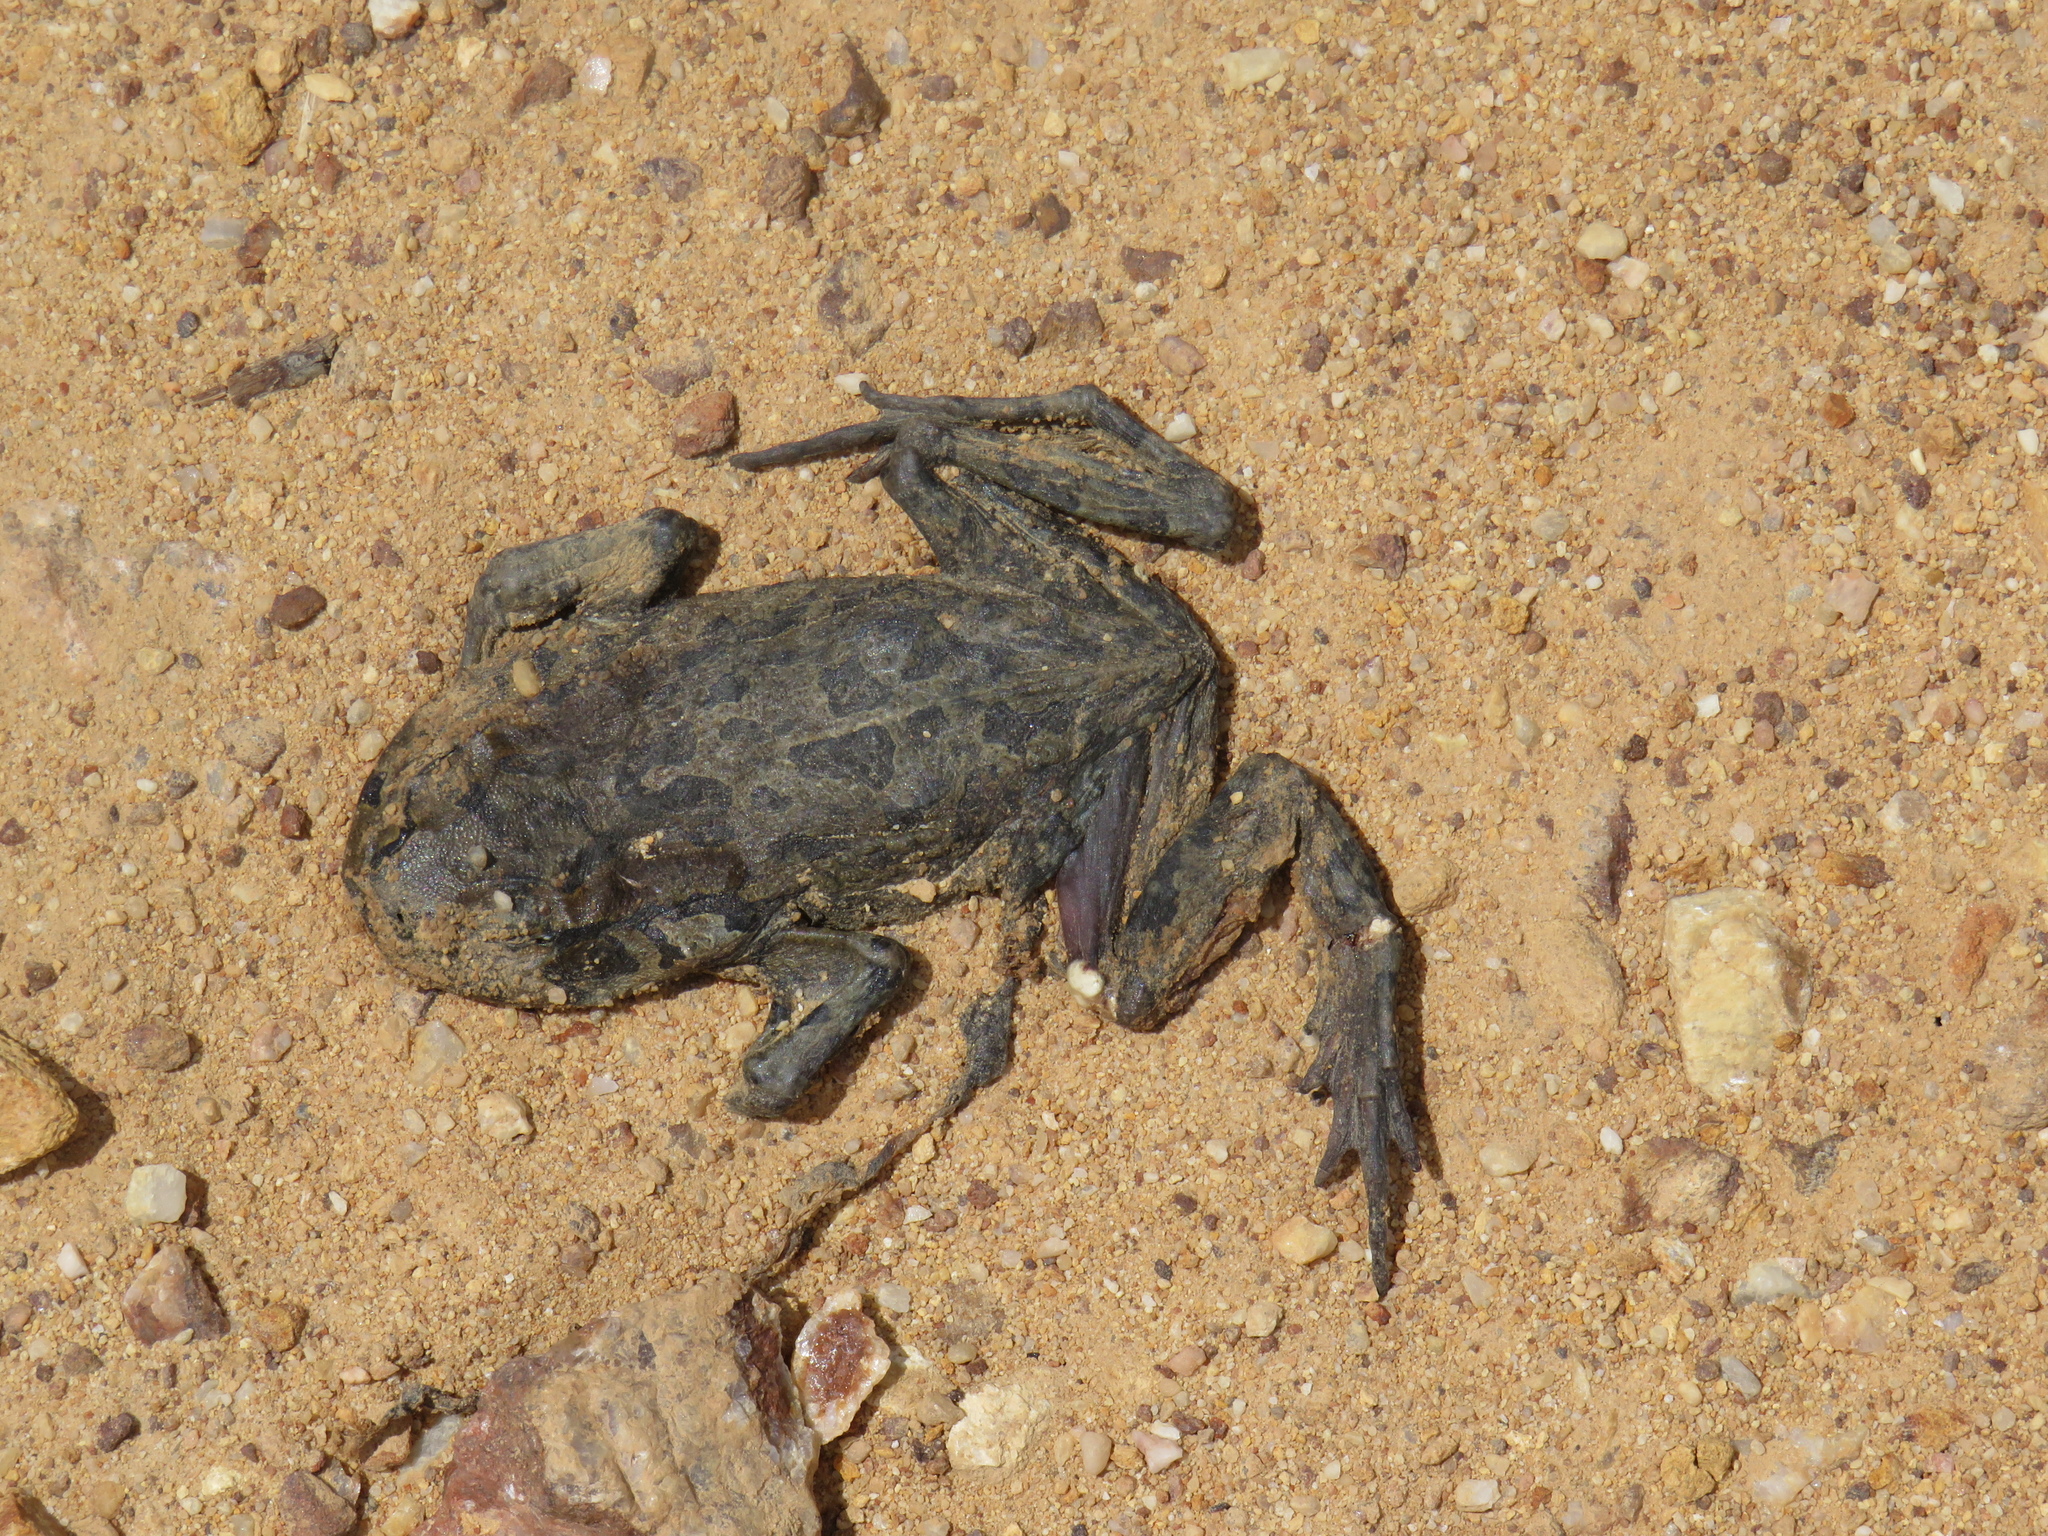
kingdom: Animalia
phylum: Chordata
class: Amphibia
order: Anura
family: Bufonidae
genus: Sclerophrys
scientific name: Sclerophrys capensis
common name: Ranger’s toad
